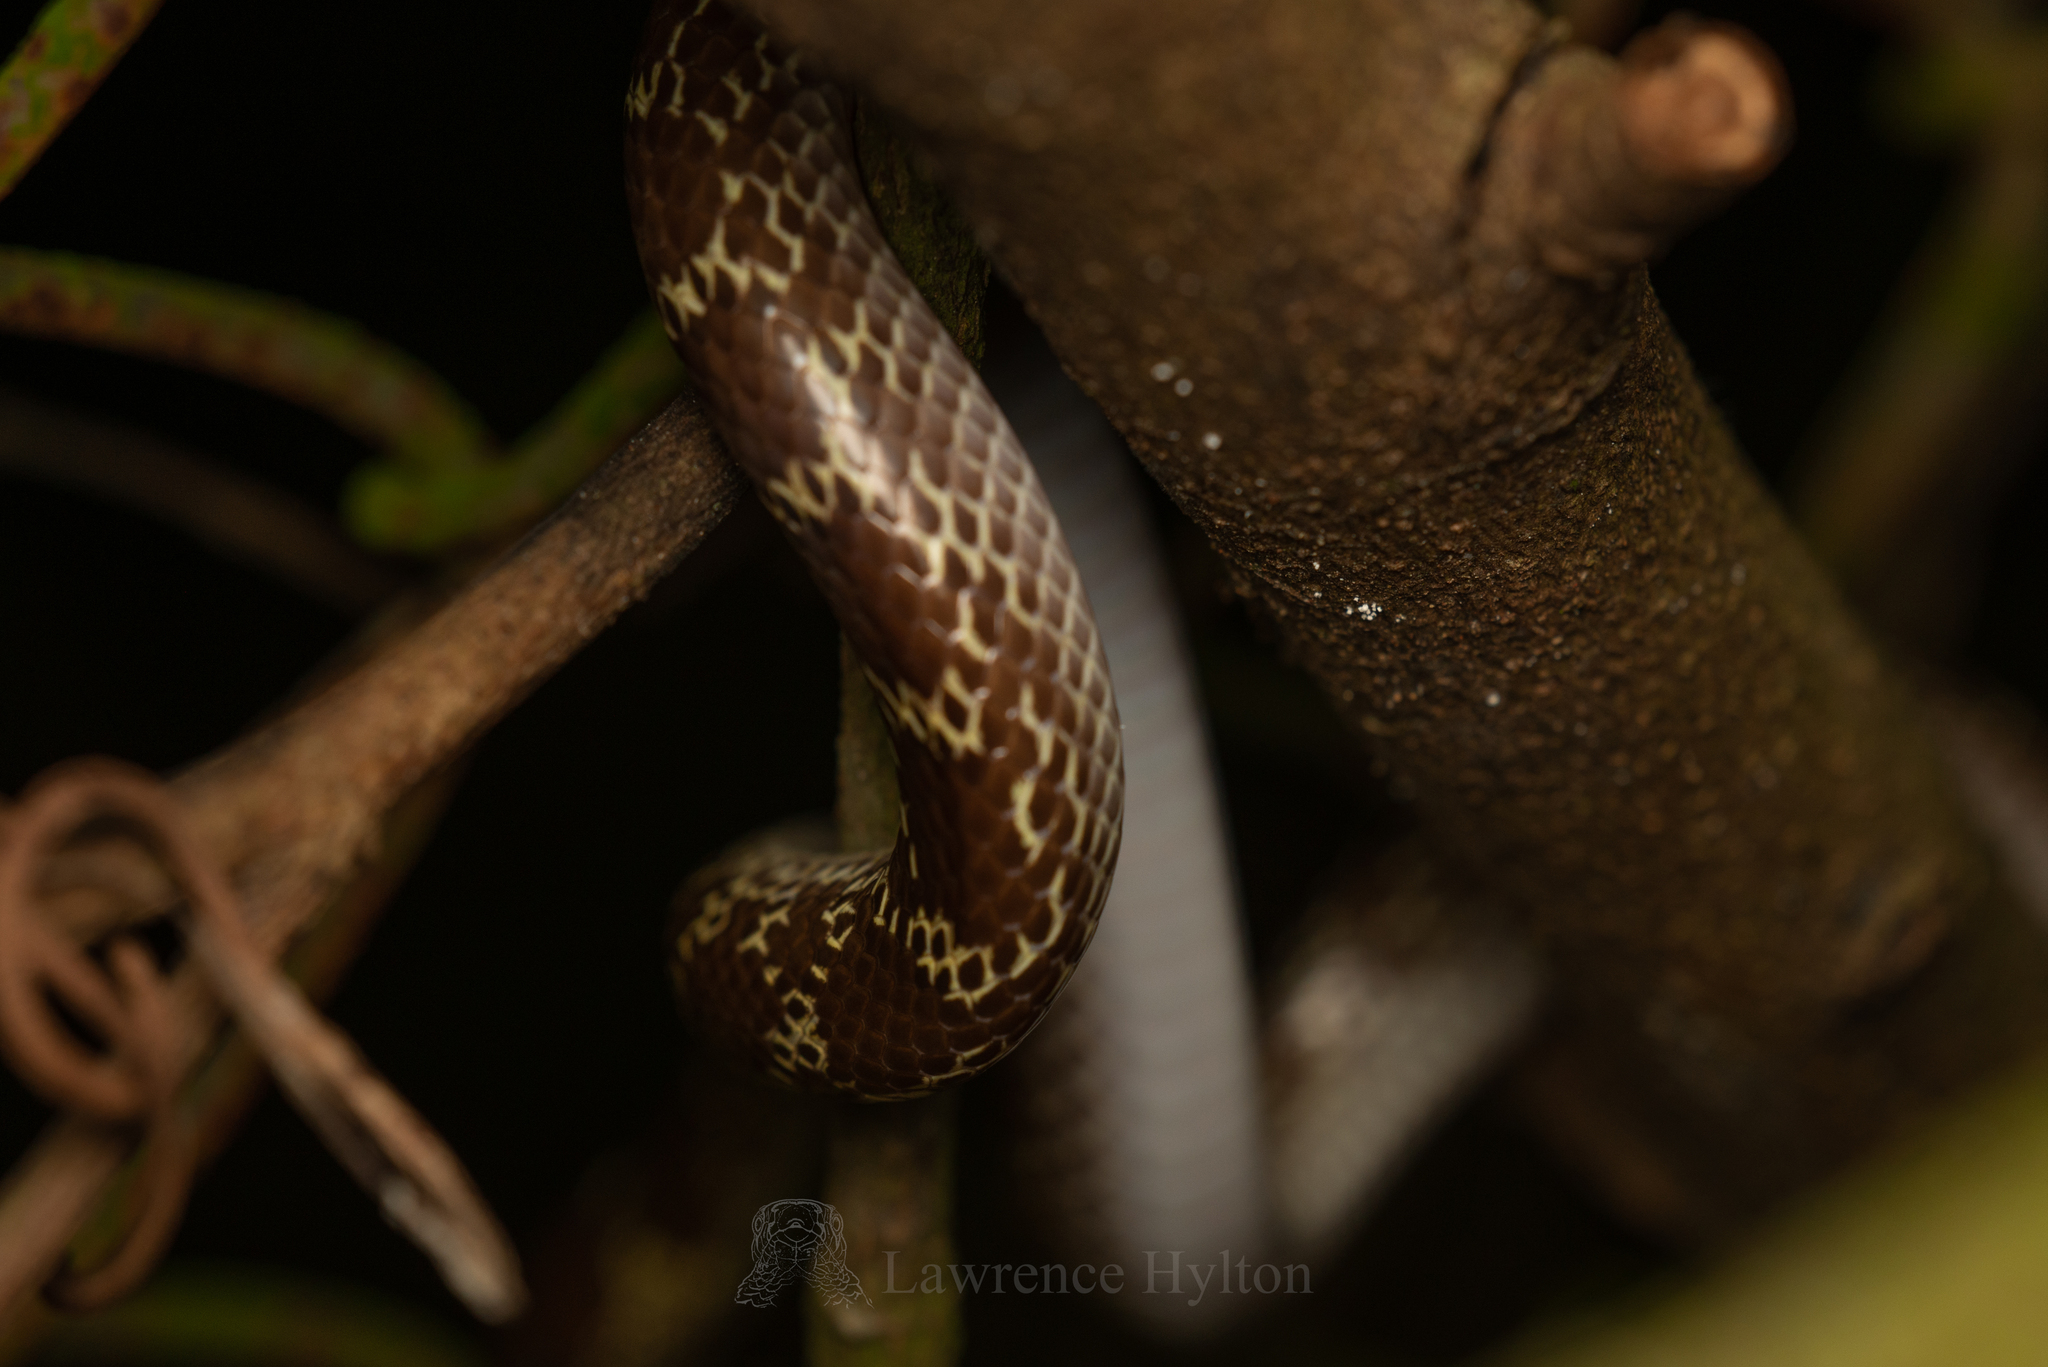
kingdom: Animalia
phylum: Chordata
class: Squamata
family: Colubridae
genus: Lycodon
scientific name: Lycodon capucinus
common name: Common wold snake/house snake
